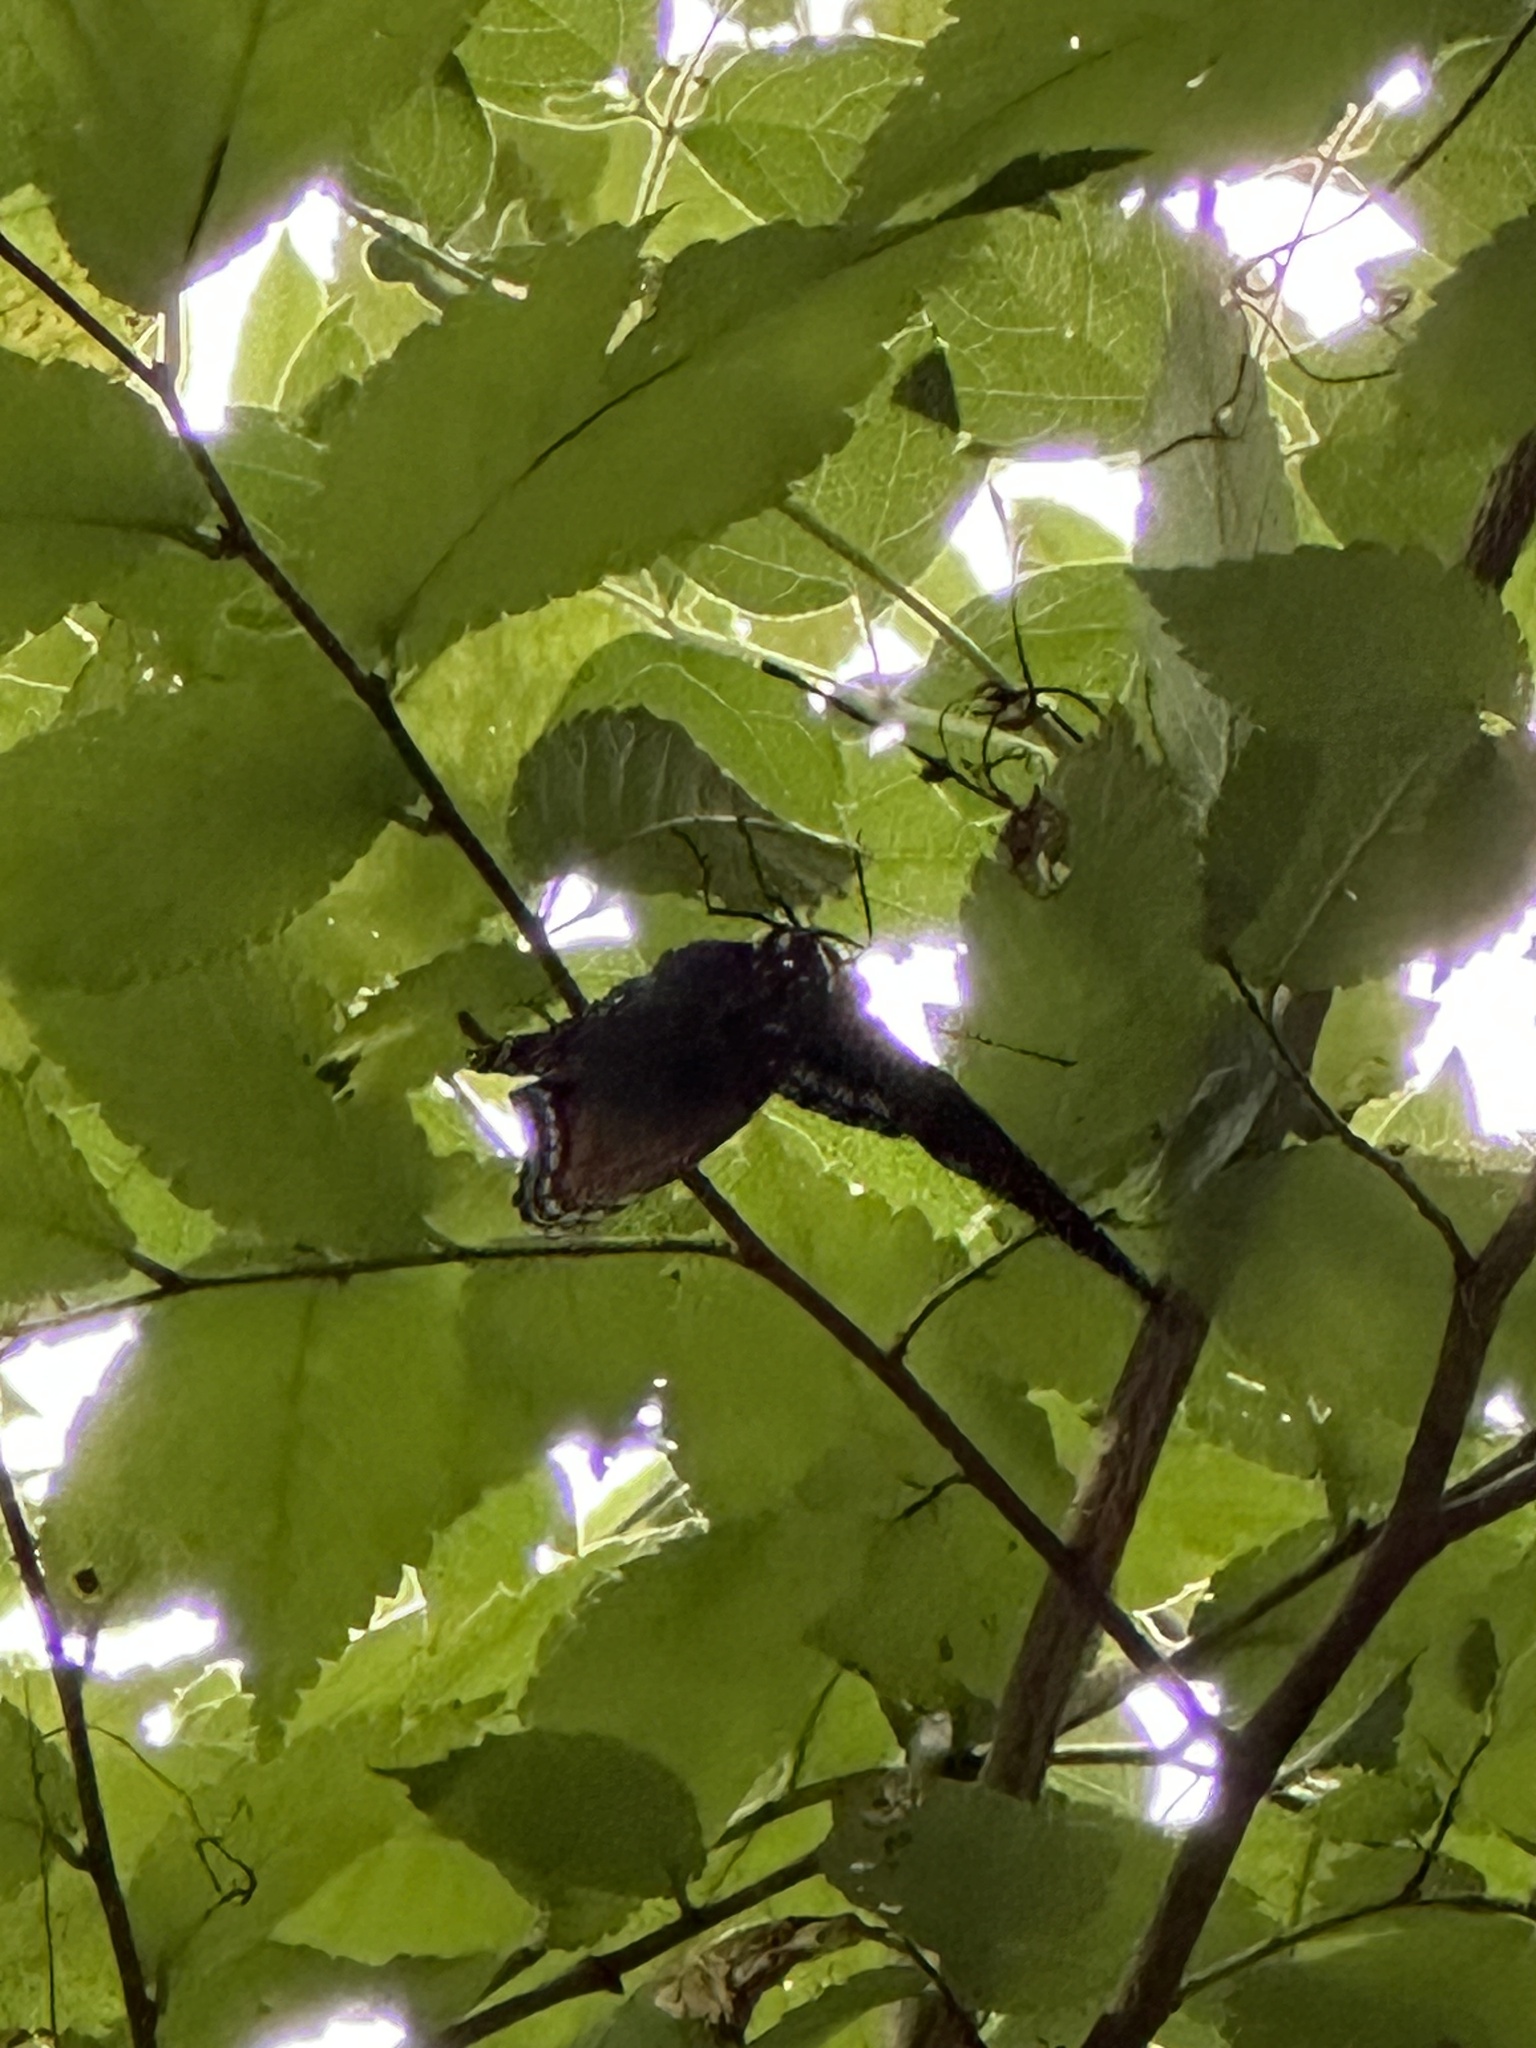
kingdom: Animalia
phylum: Arthropoda
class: Insecta
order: Lepidoptera
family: Nymphalidae
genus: Limenitis
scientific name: Limenitis arthemis
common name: Red-spotted admiral
